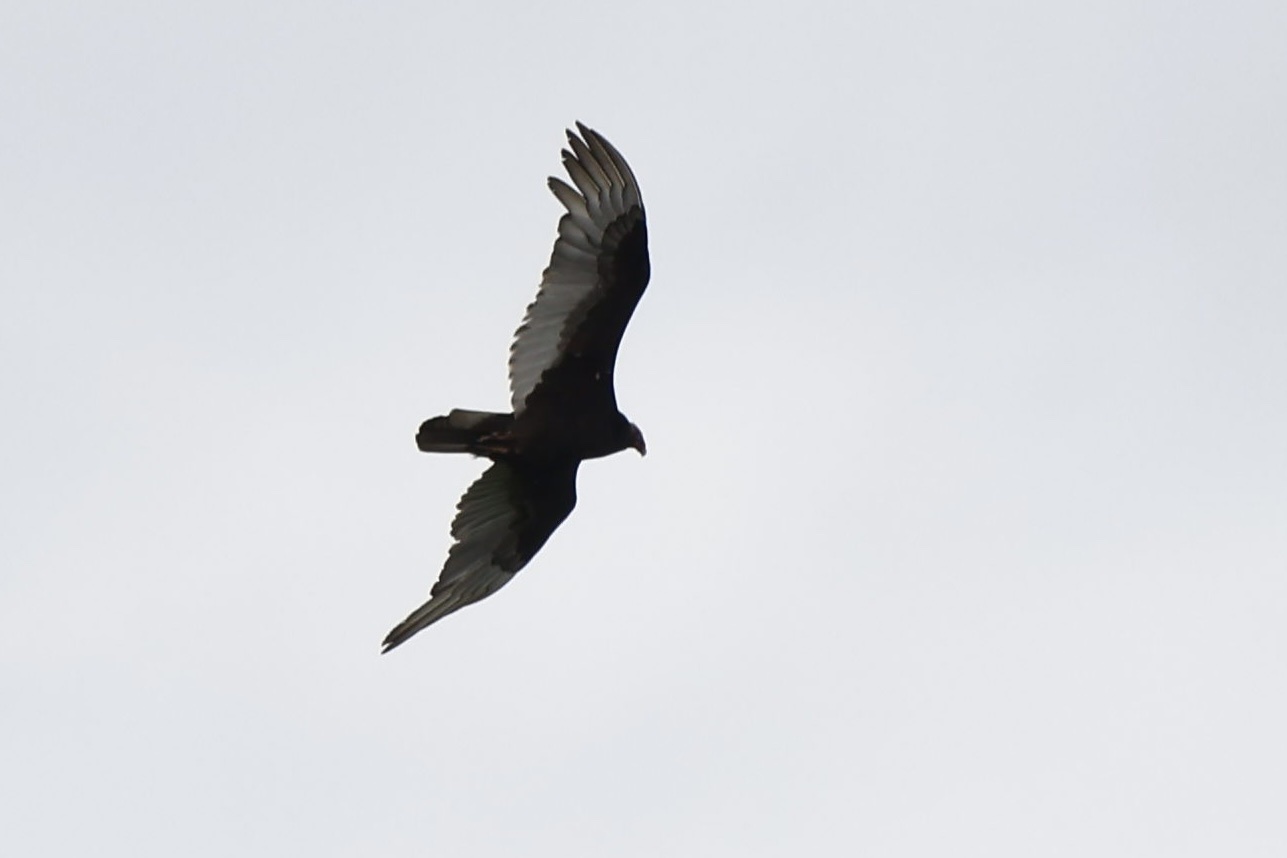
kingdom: Animalia
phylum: Chordata
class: Aves
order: Accipitriformes
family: Cathartidae
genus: Cathartes
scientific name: Cathartes aura
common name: Turkey vulture
